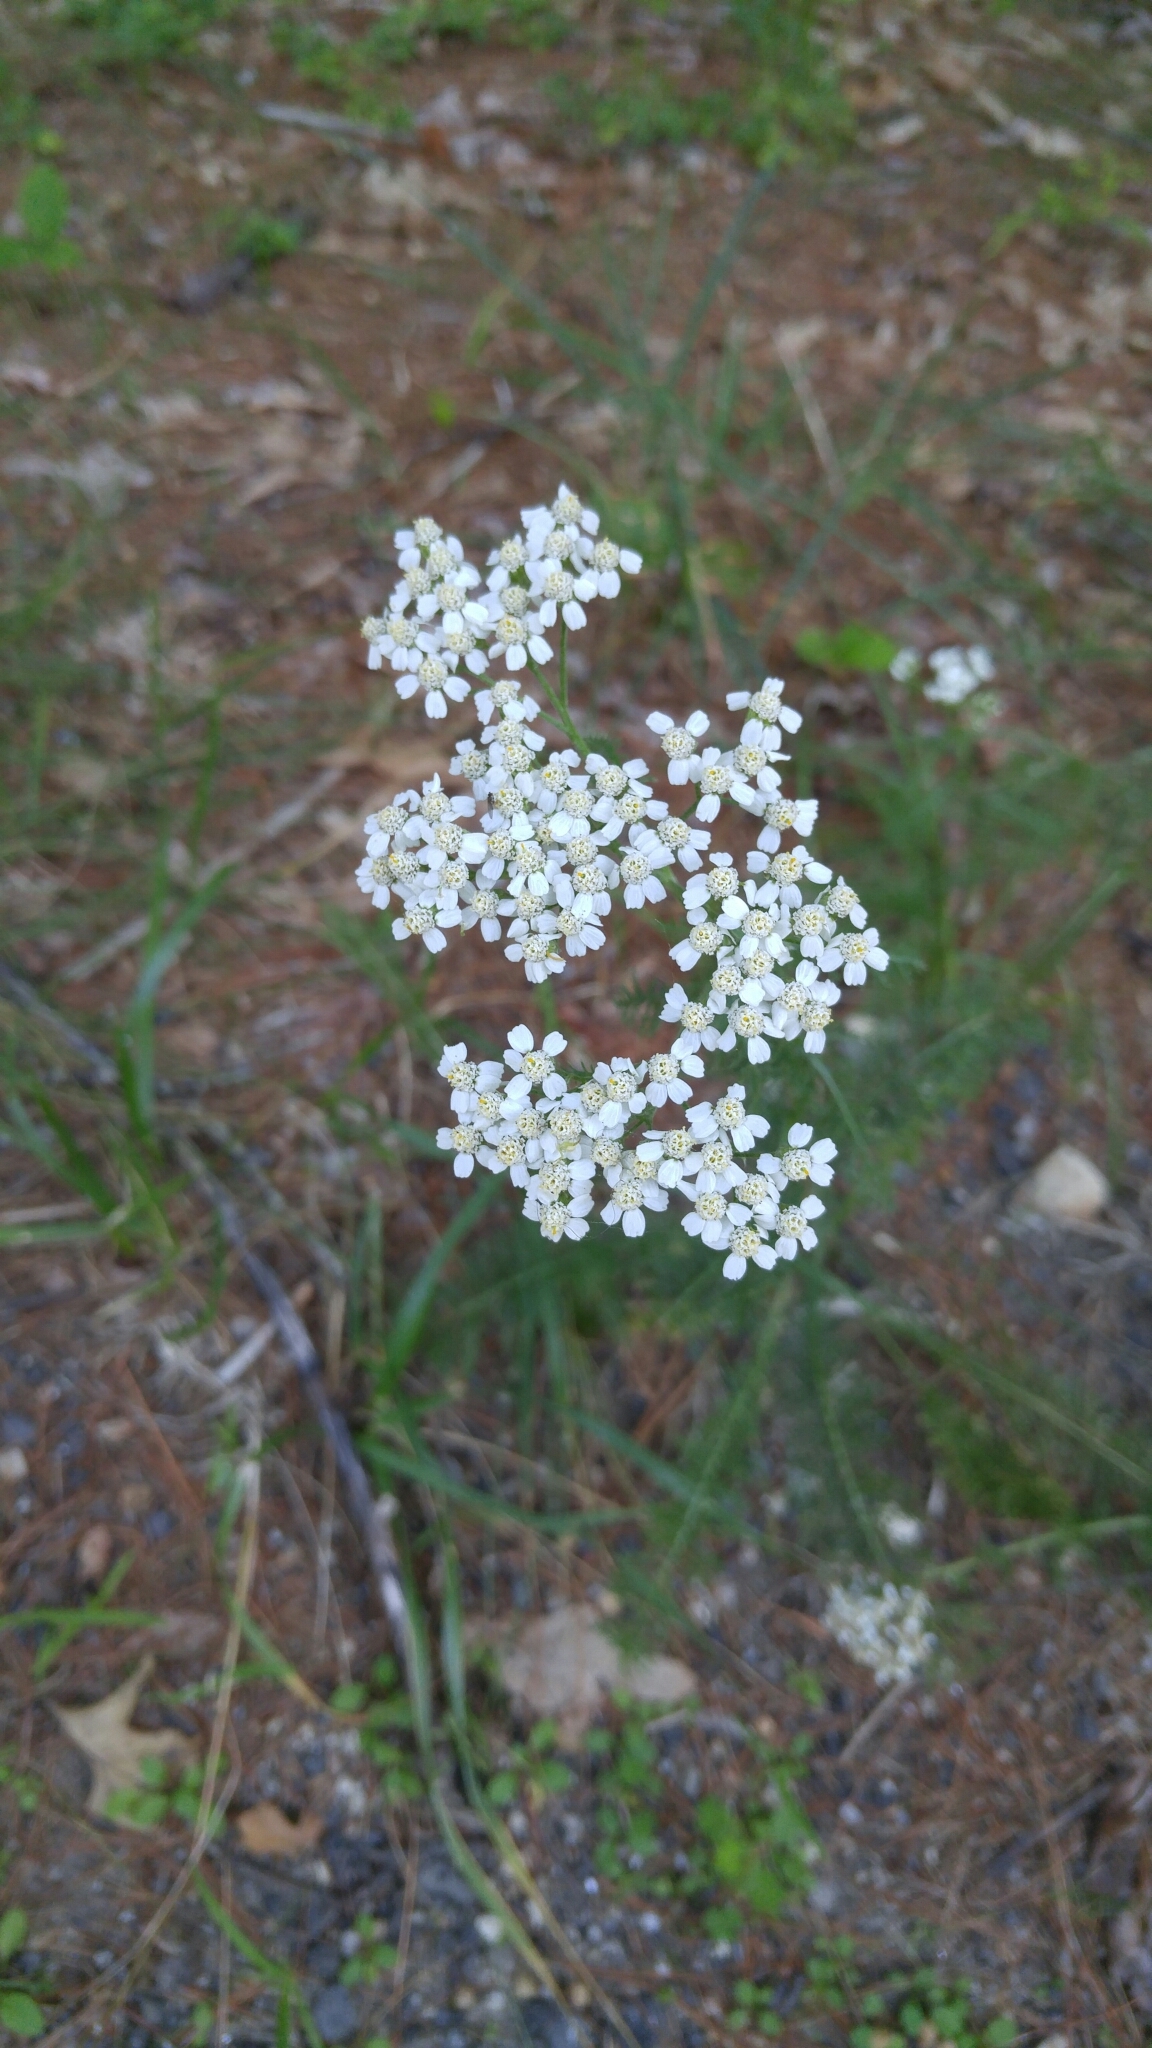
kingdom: Plantae
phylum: Tracheophyta
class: Magnoliopsida
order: Asterales
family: Asteraceae
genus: Achillea
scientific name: Achillea millefolium
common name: Yarrow
